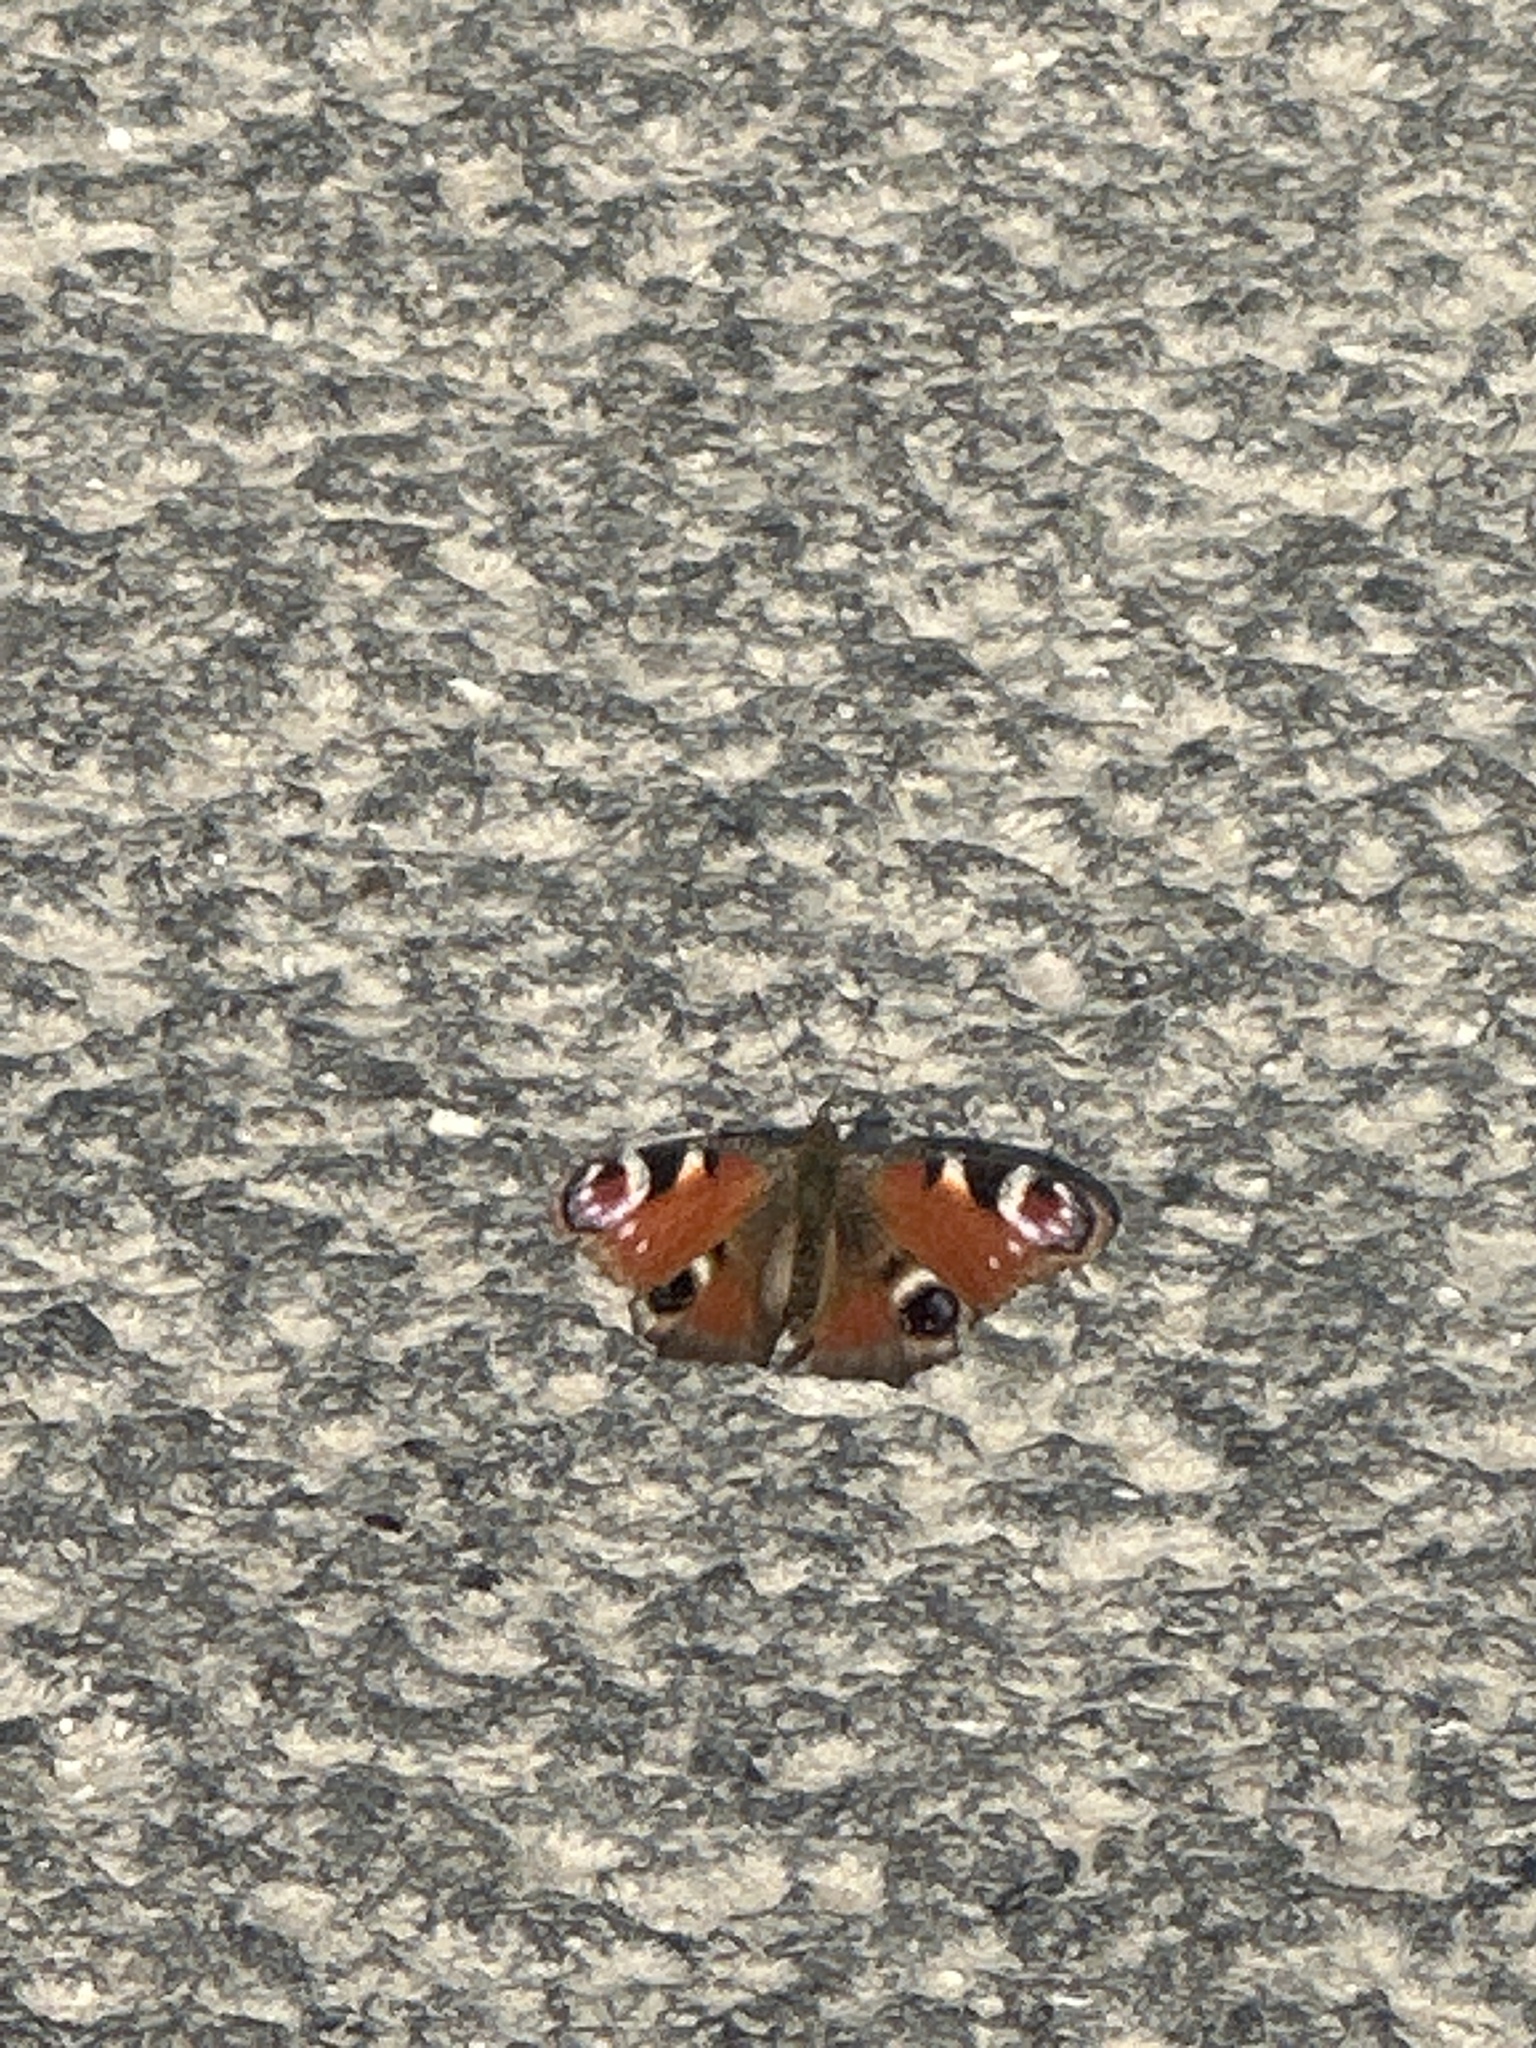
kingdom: Animalia
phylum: Arthropoda
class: Insecta
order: Lepidoptera
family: Nymphalidae
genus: Aglais
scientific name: Aglais io
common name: Peacock
